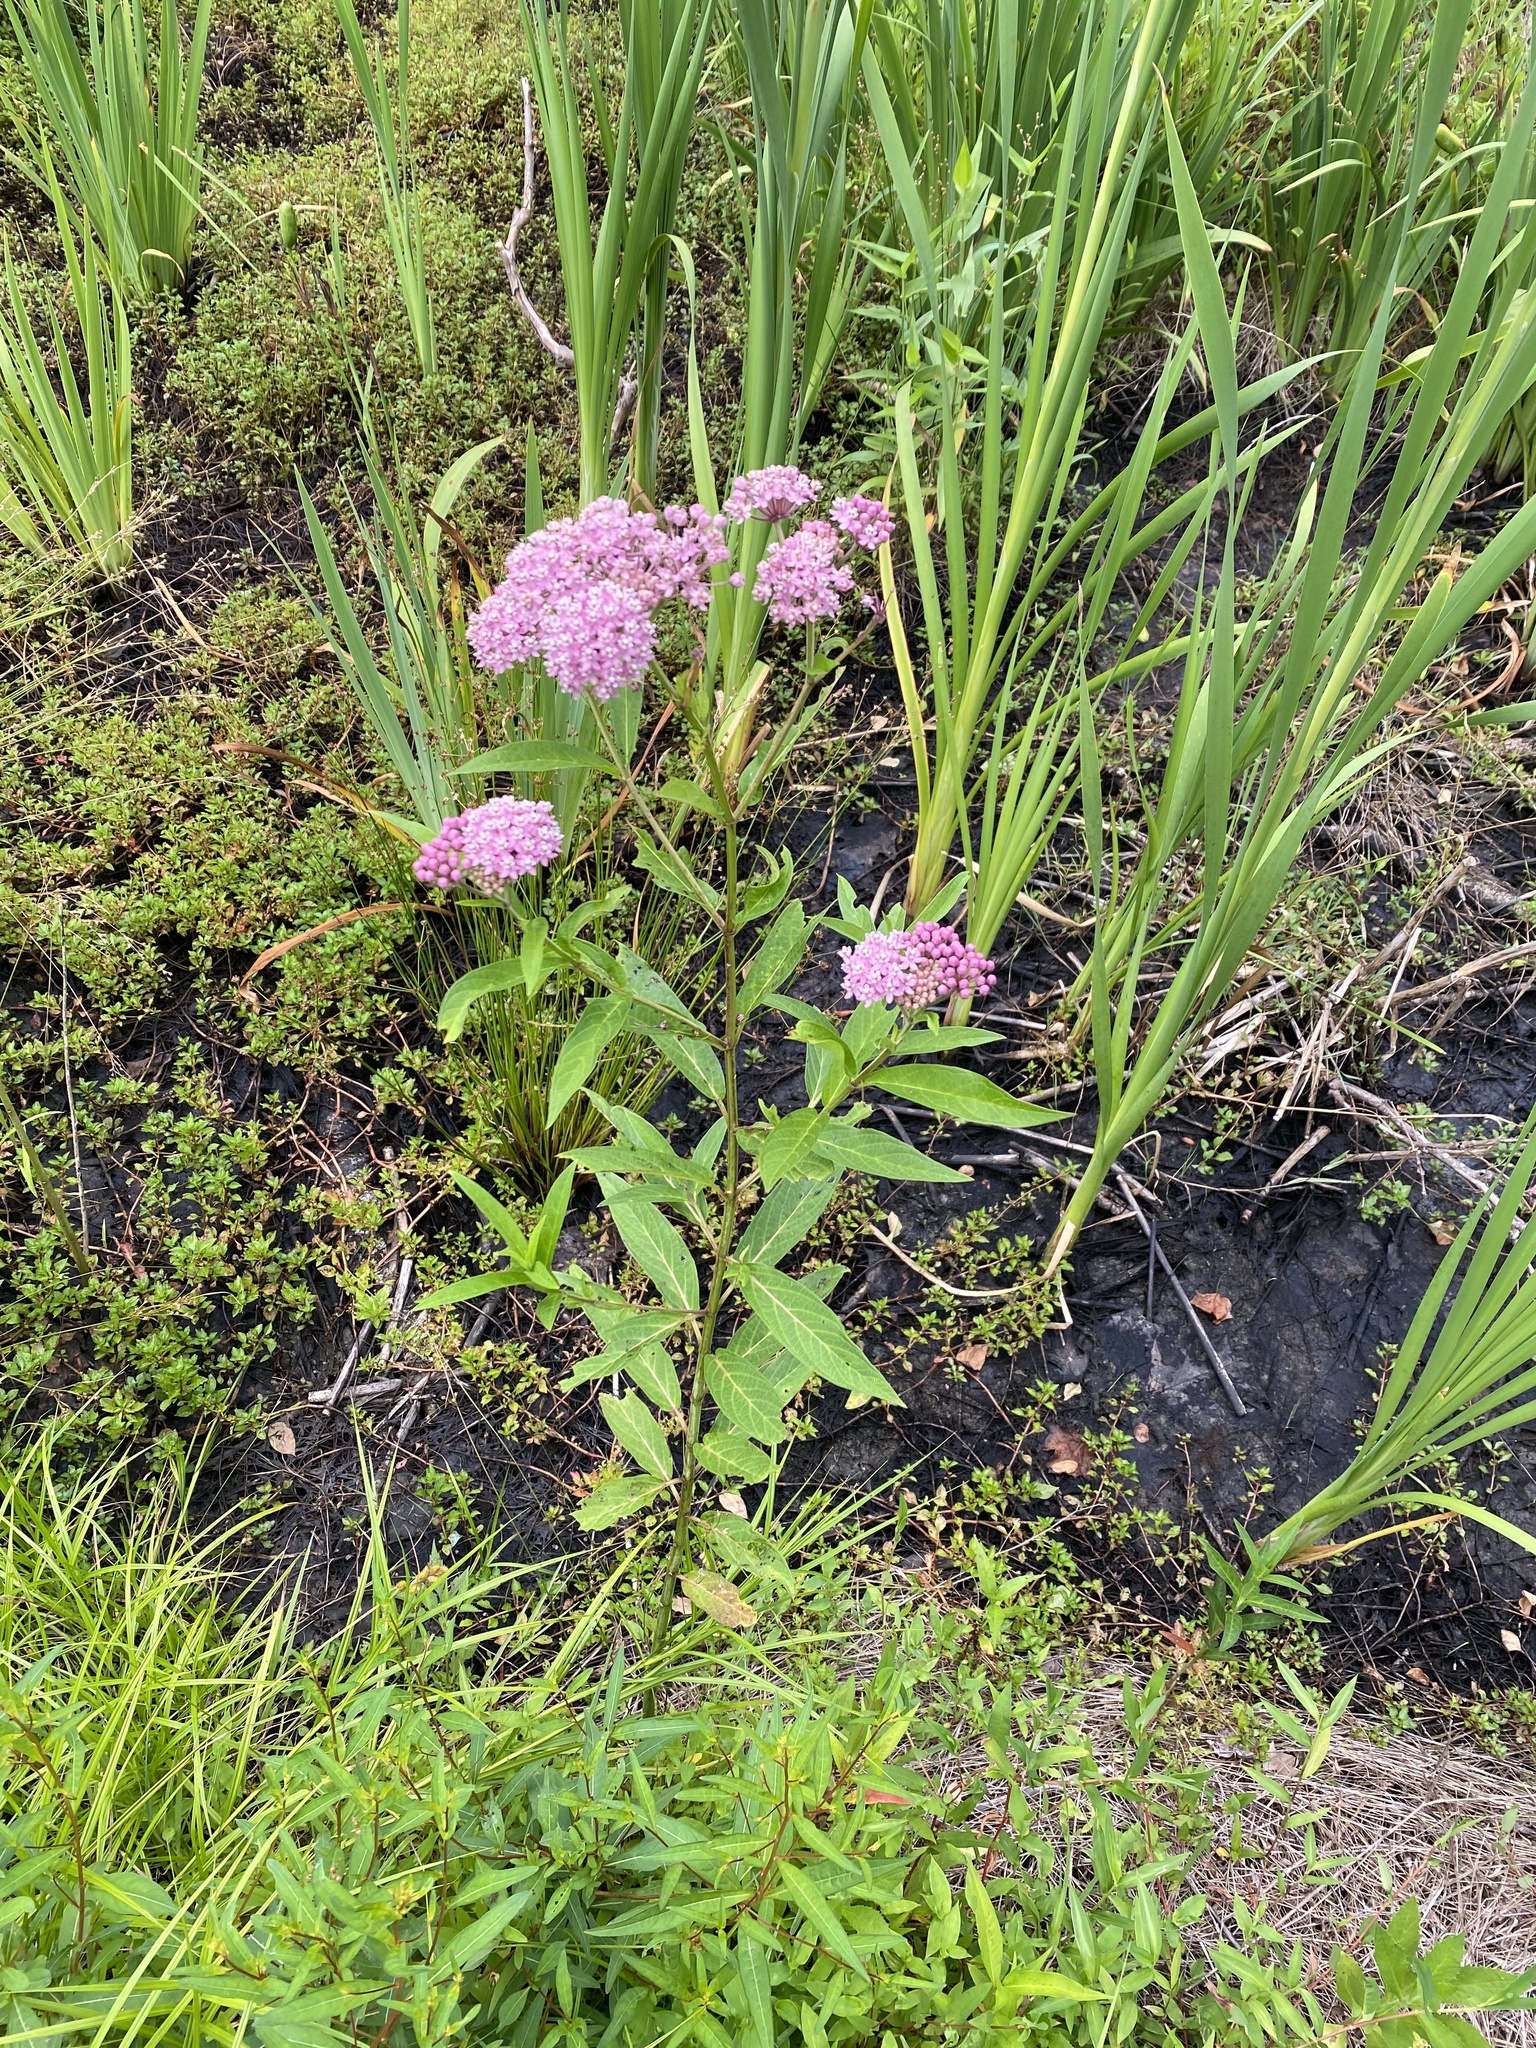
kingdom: Plantae
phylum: Tracheophyta
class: Magnoliopsida
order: Gentianales
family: Apocynaceae
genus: Asclepias
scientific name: Asclepias incarnata
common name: Swamp milkweed
